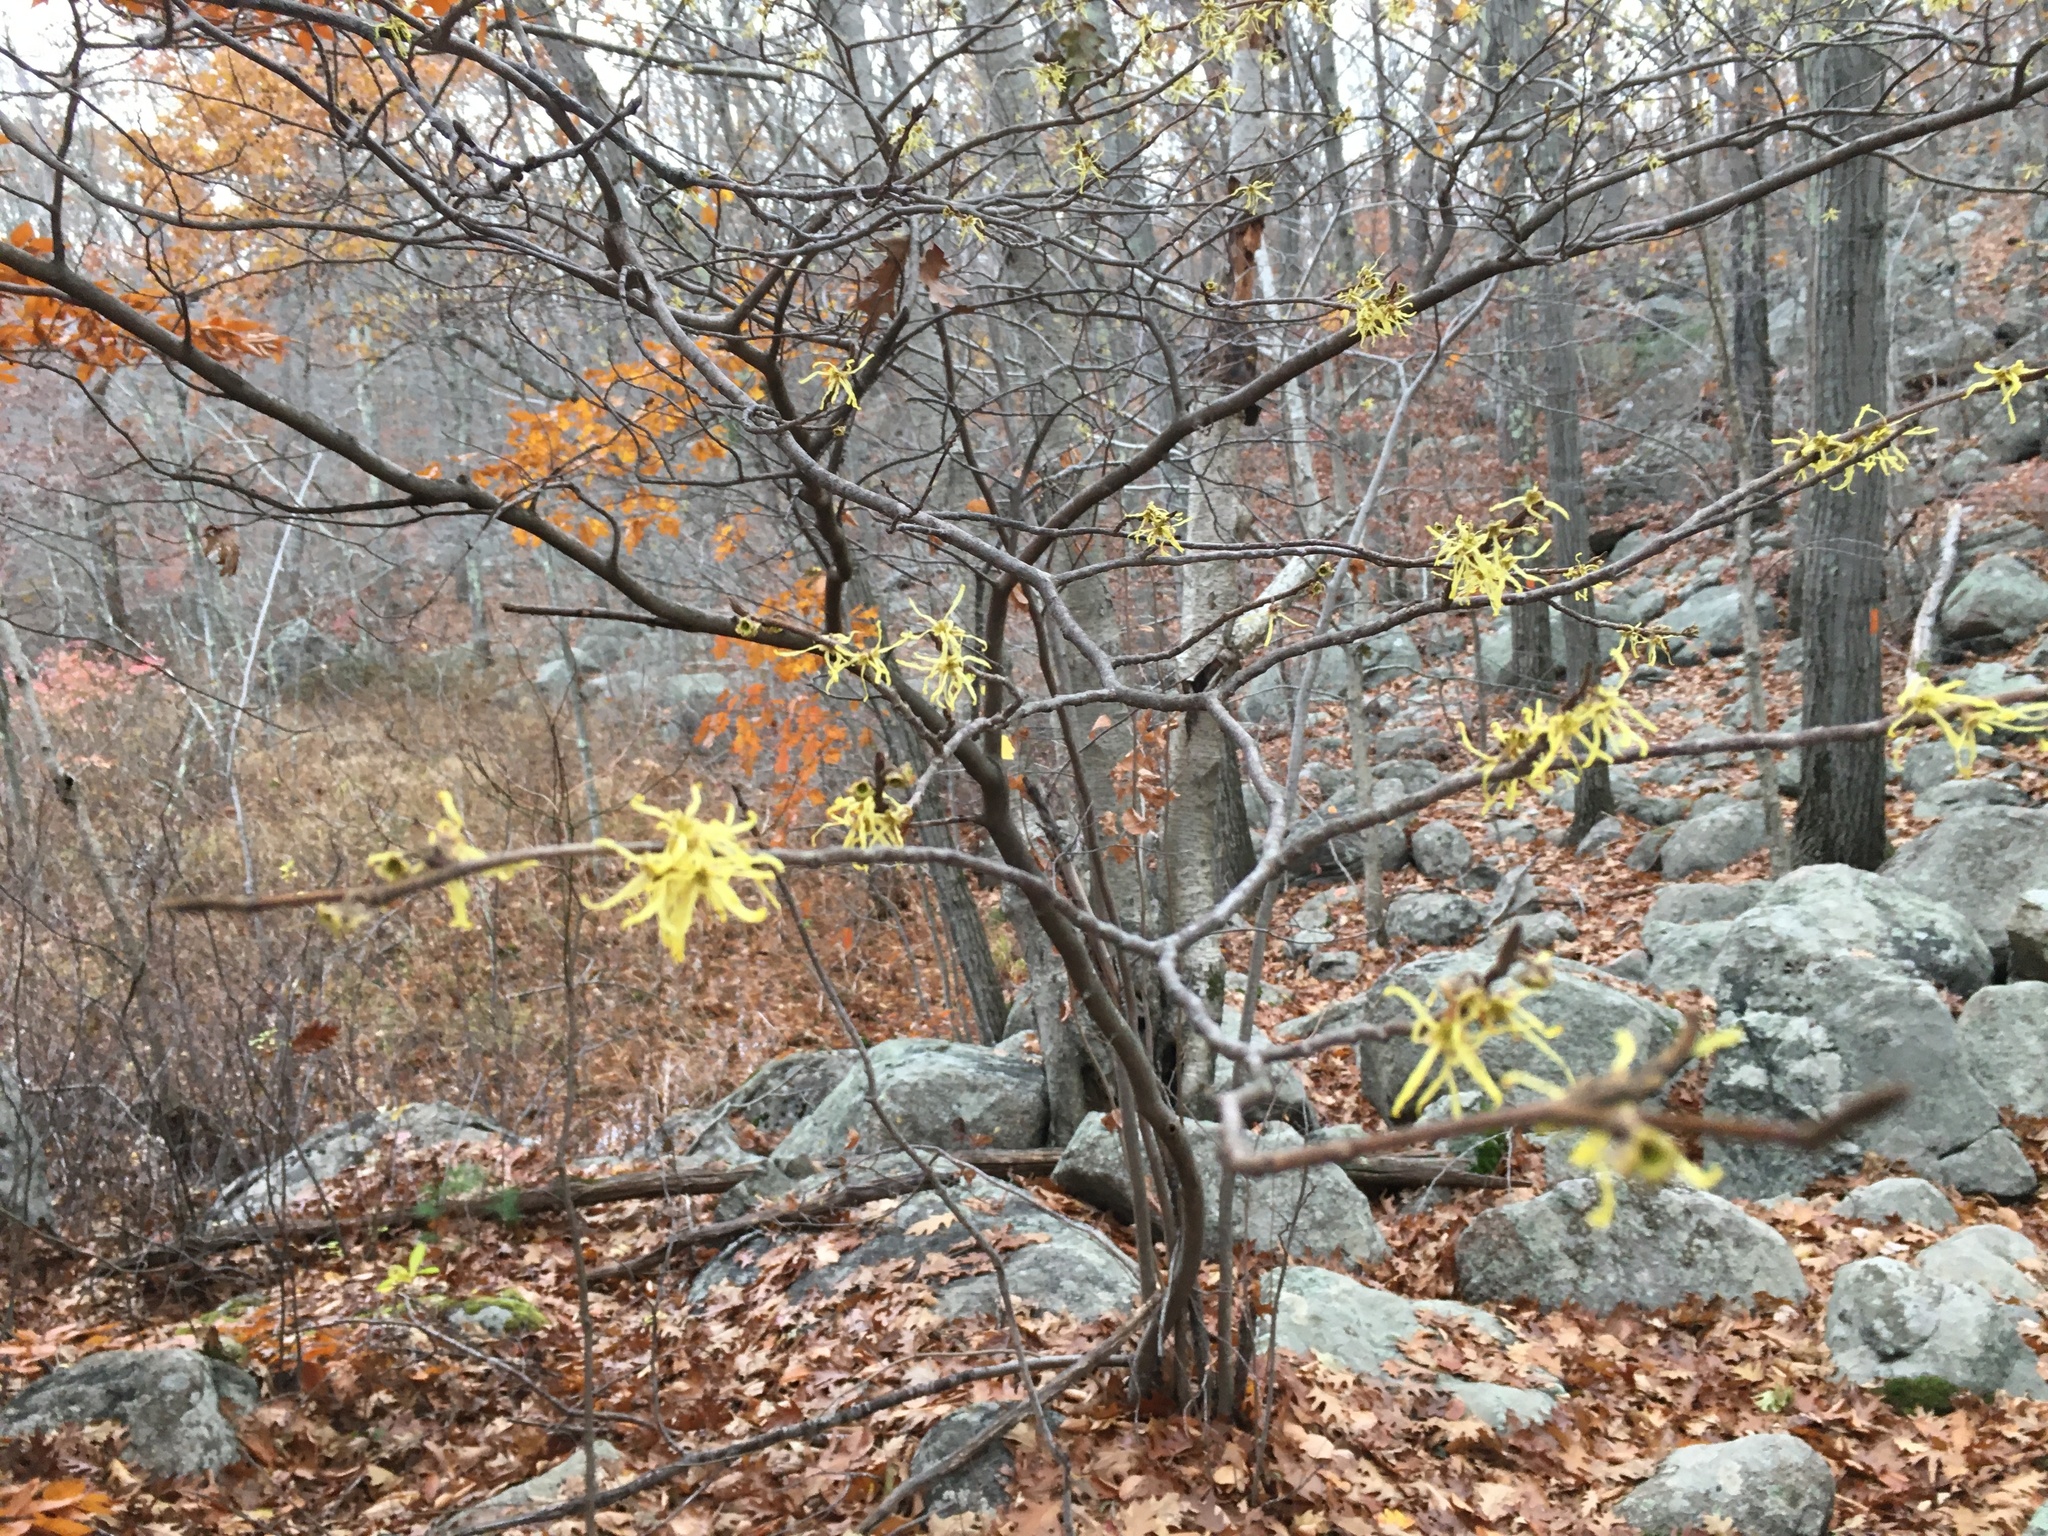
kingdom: Plantae
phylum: Tracheophyta
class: Magnoliopsida
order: Saxifragales
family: Hamamelidaceae
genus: Hamamelis
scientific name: Hamamelis virginiana
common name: Witch-hazel
